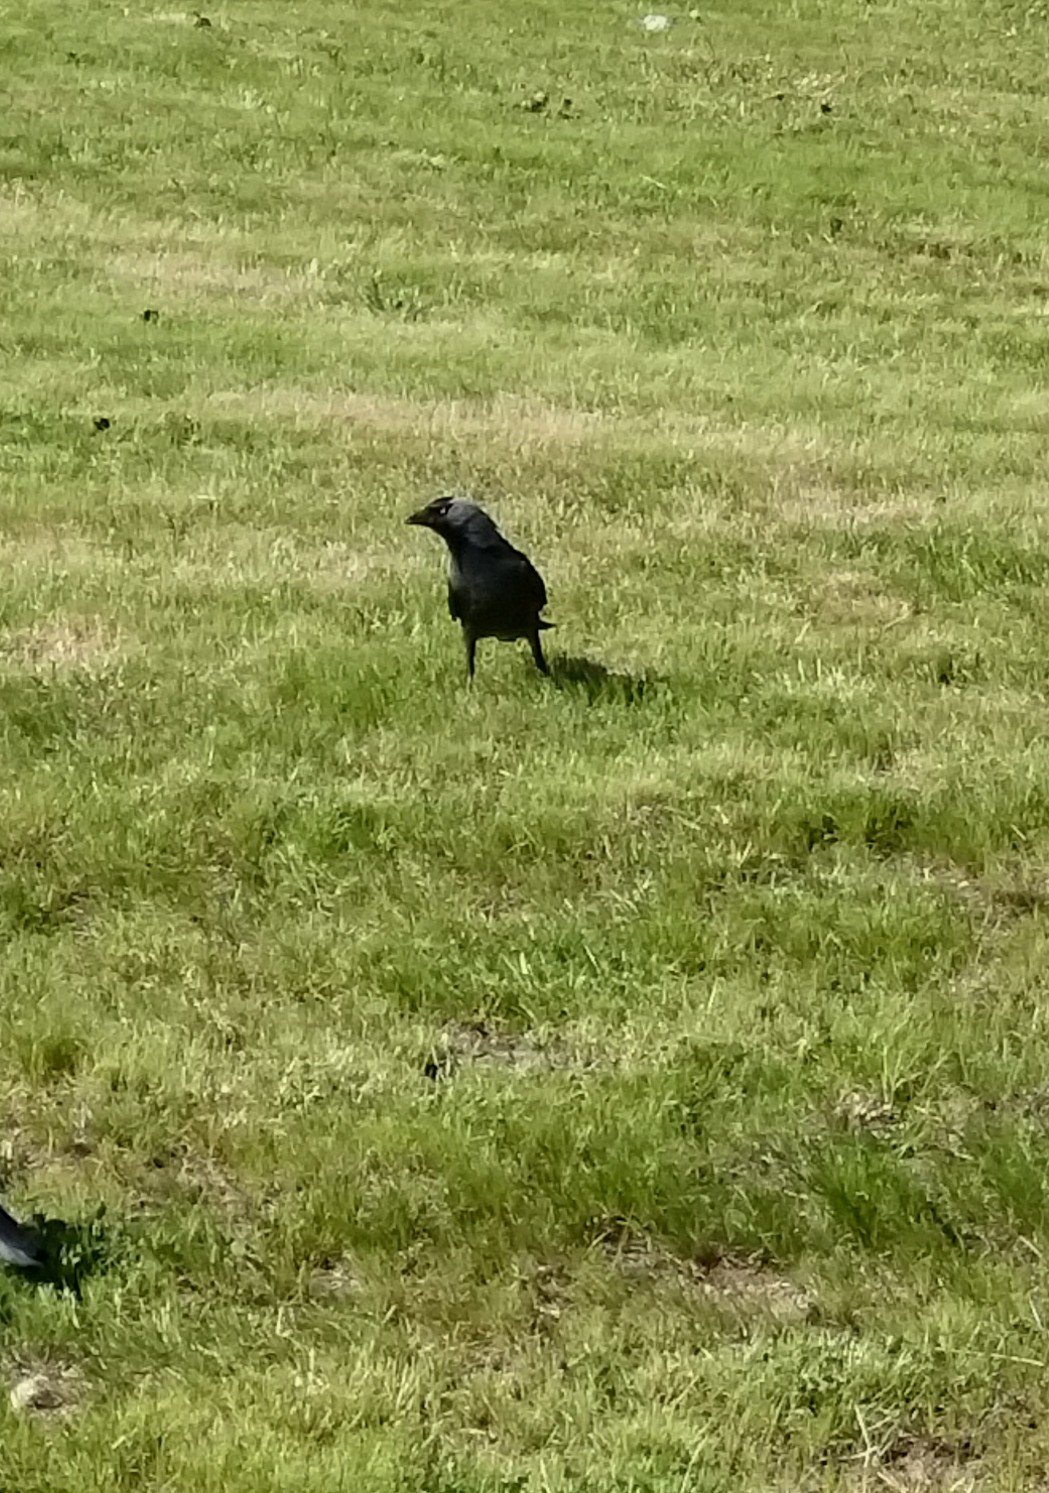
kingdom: Animalia
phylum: Chordata
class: Aves
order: Passeriformes
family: Corvidae
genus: Coloeus
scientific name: Coloeus monedula
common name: Western jackdaw
